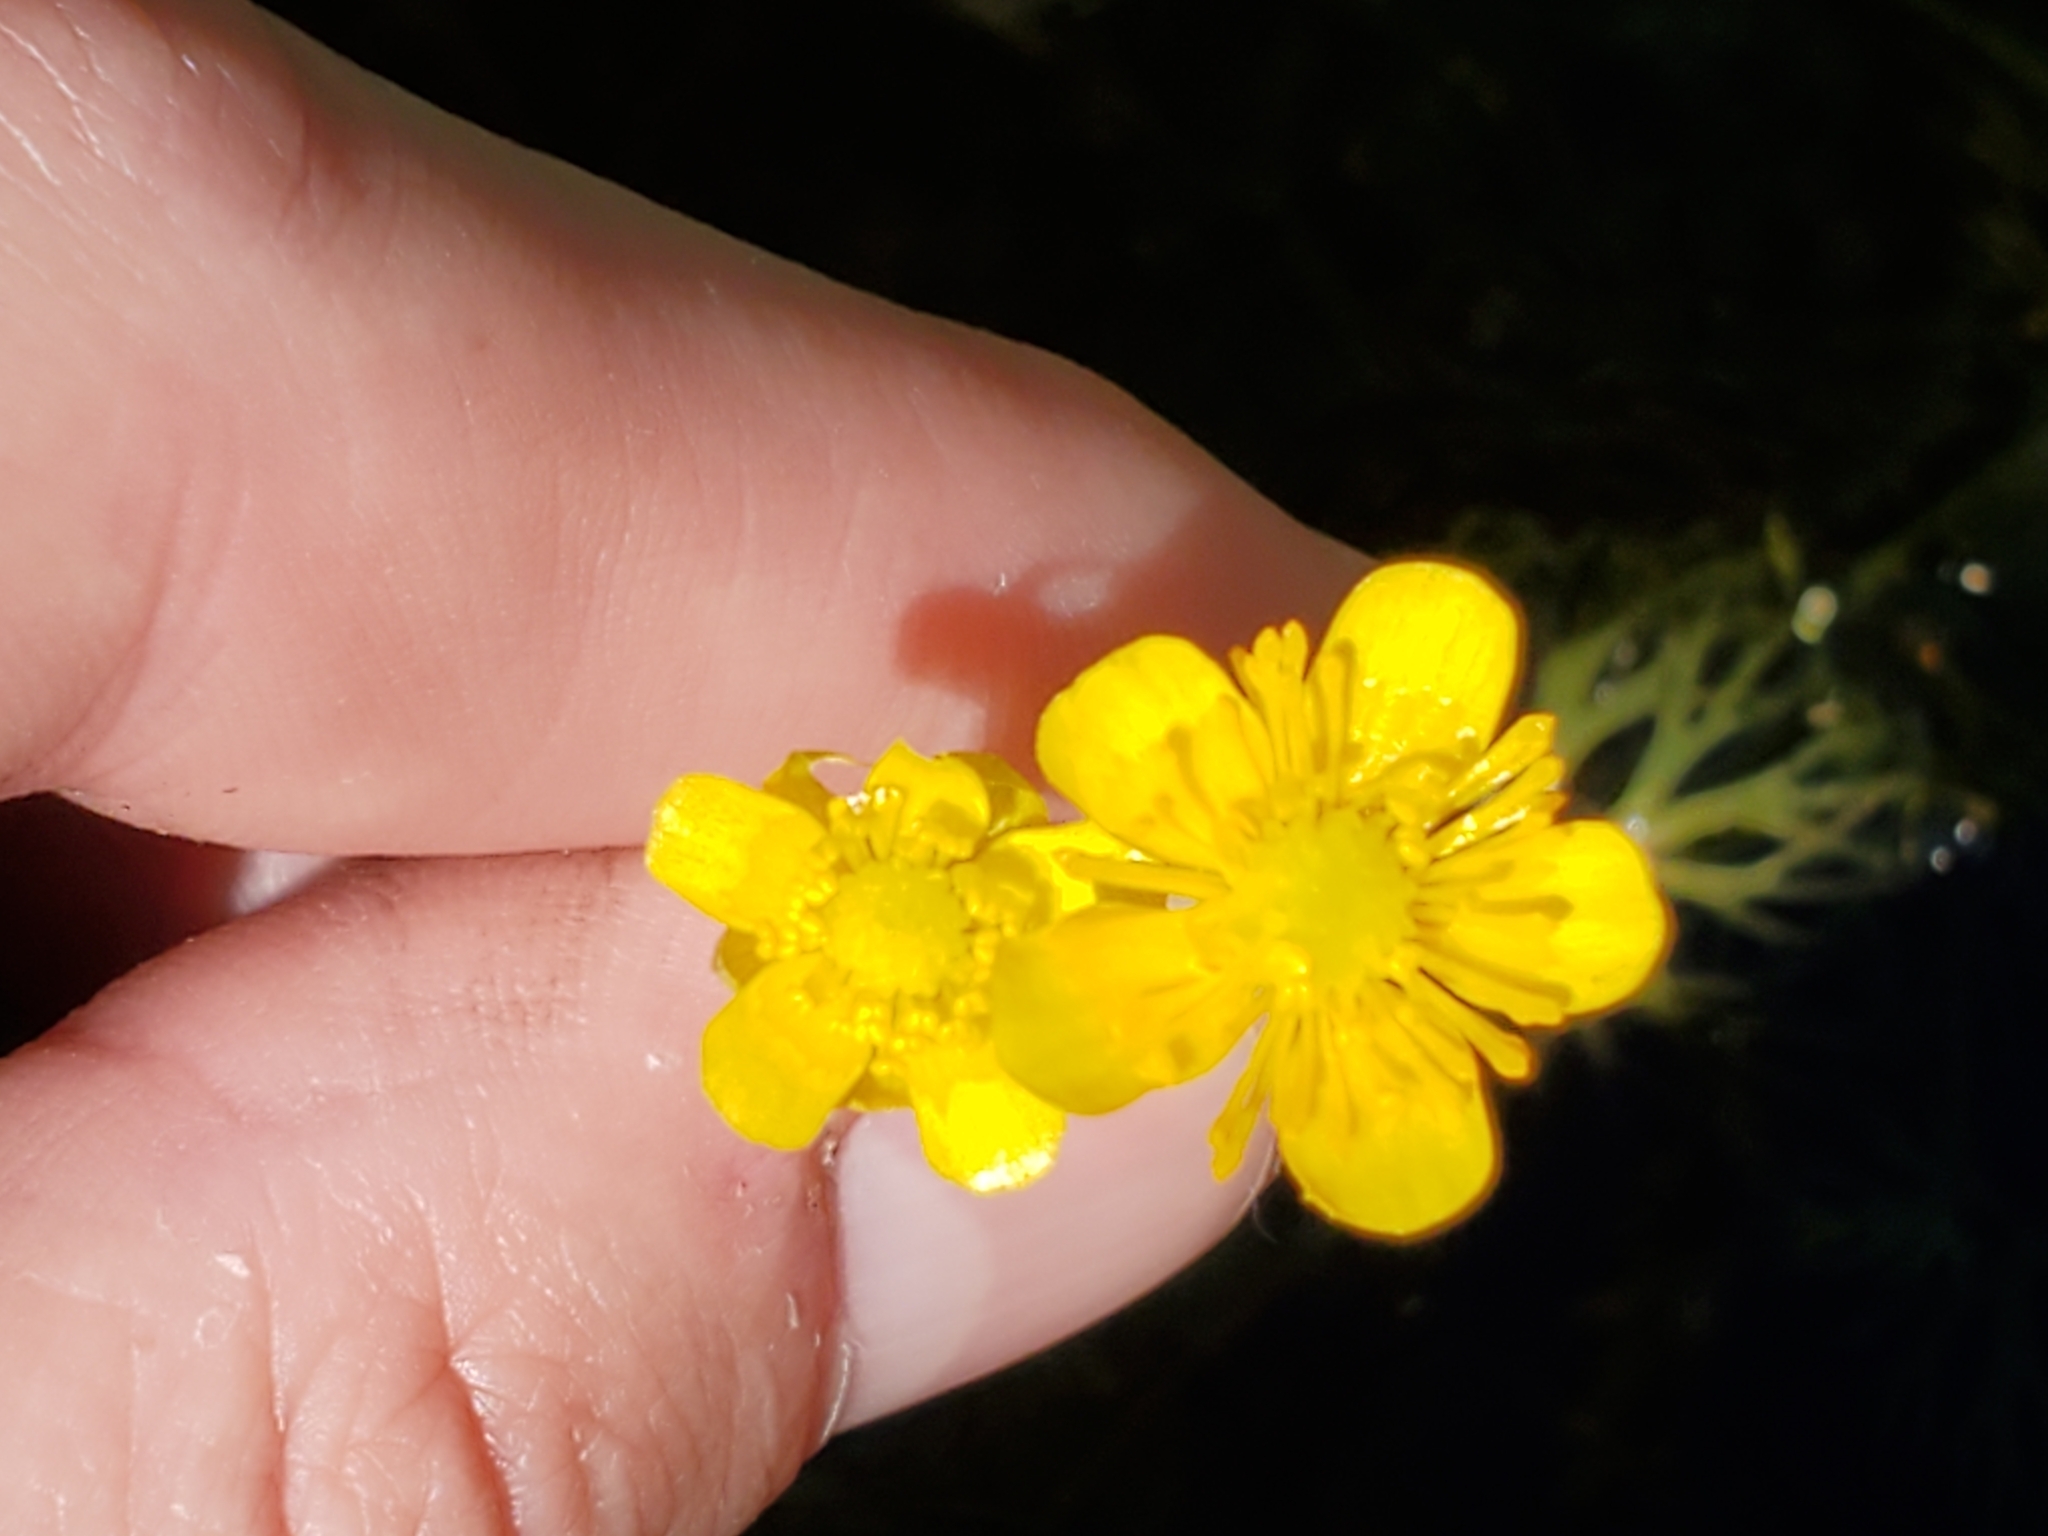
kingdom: Plantae
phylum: Tracheophyta
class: Magnoliopsida
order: Ranunculales
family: Ranunculaceae
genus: Ranunculus
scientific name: Ranunculus flabellaris
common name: Yellow water-crowfoot
